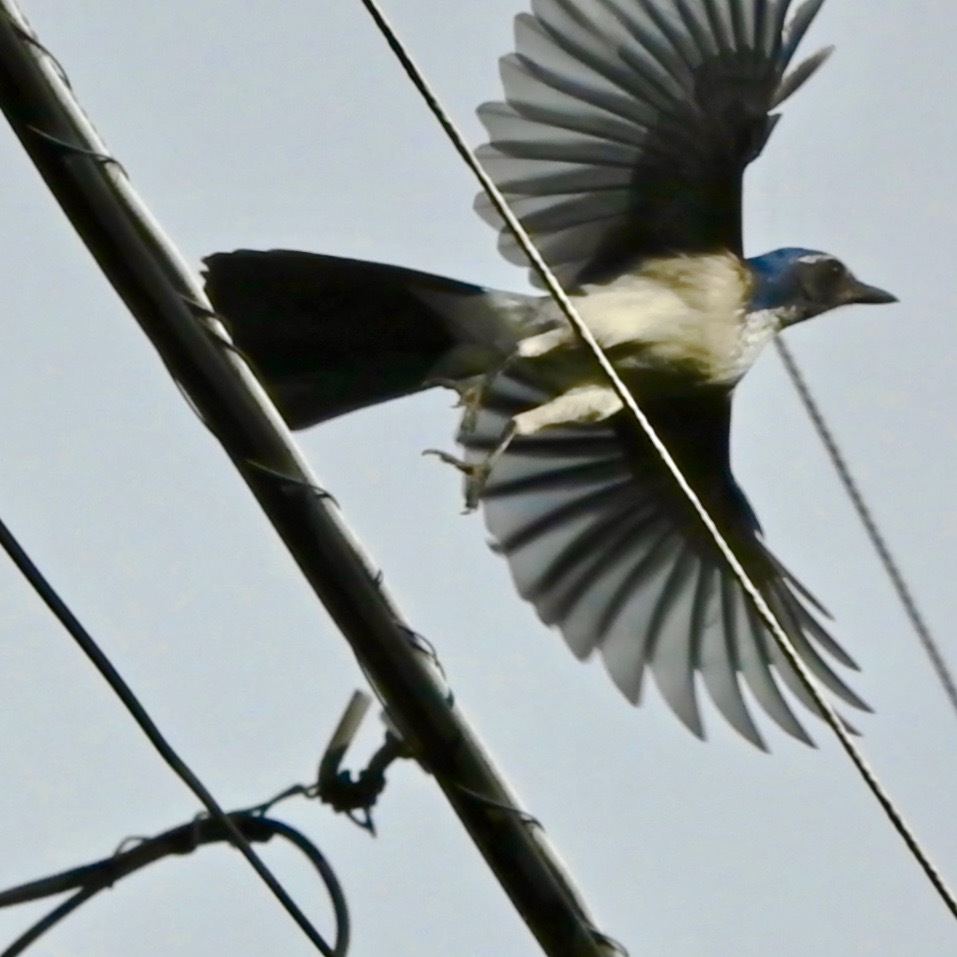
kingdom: Animalia
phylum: Chordata
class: Aves
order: Passeriformes
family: Corvidae
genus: Aphelocoma
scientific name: Aphelocoma californica
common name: California scrub-jay
